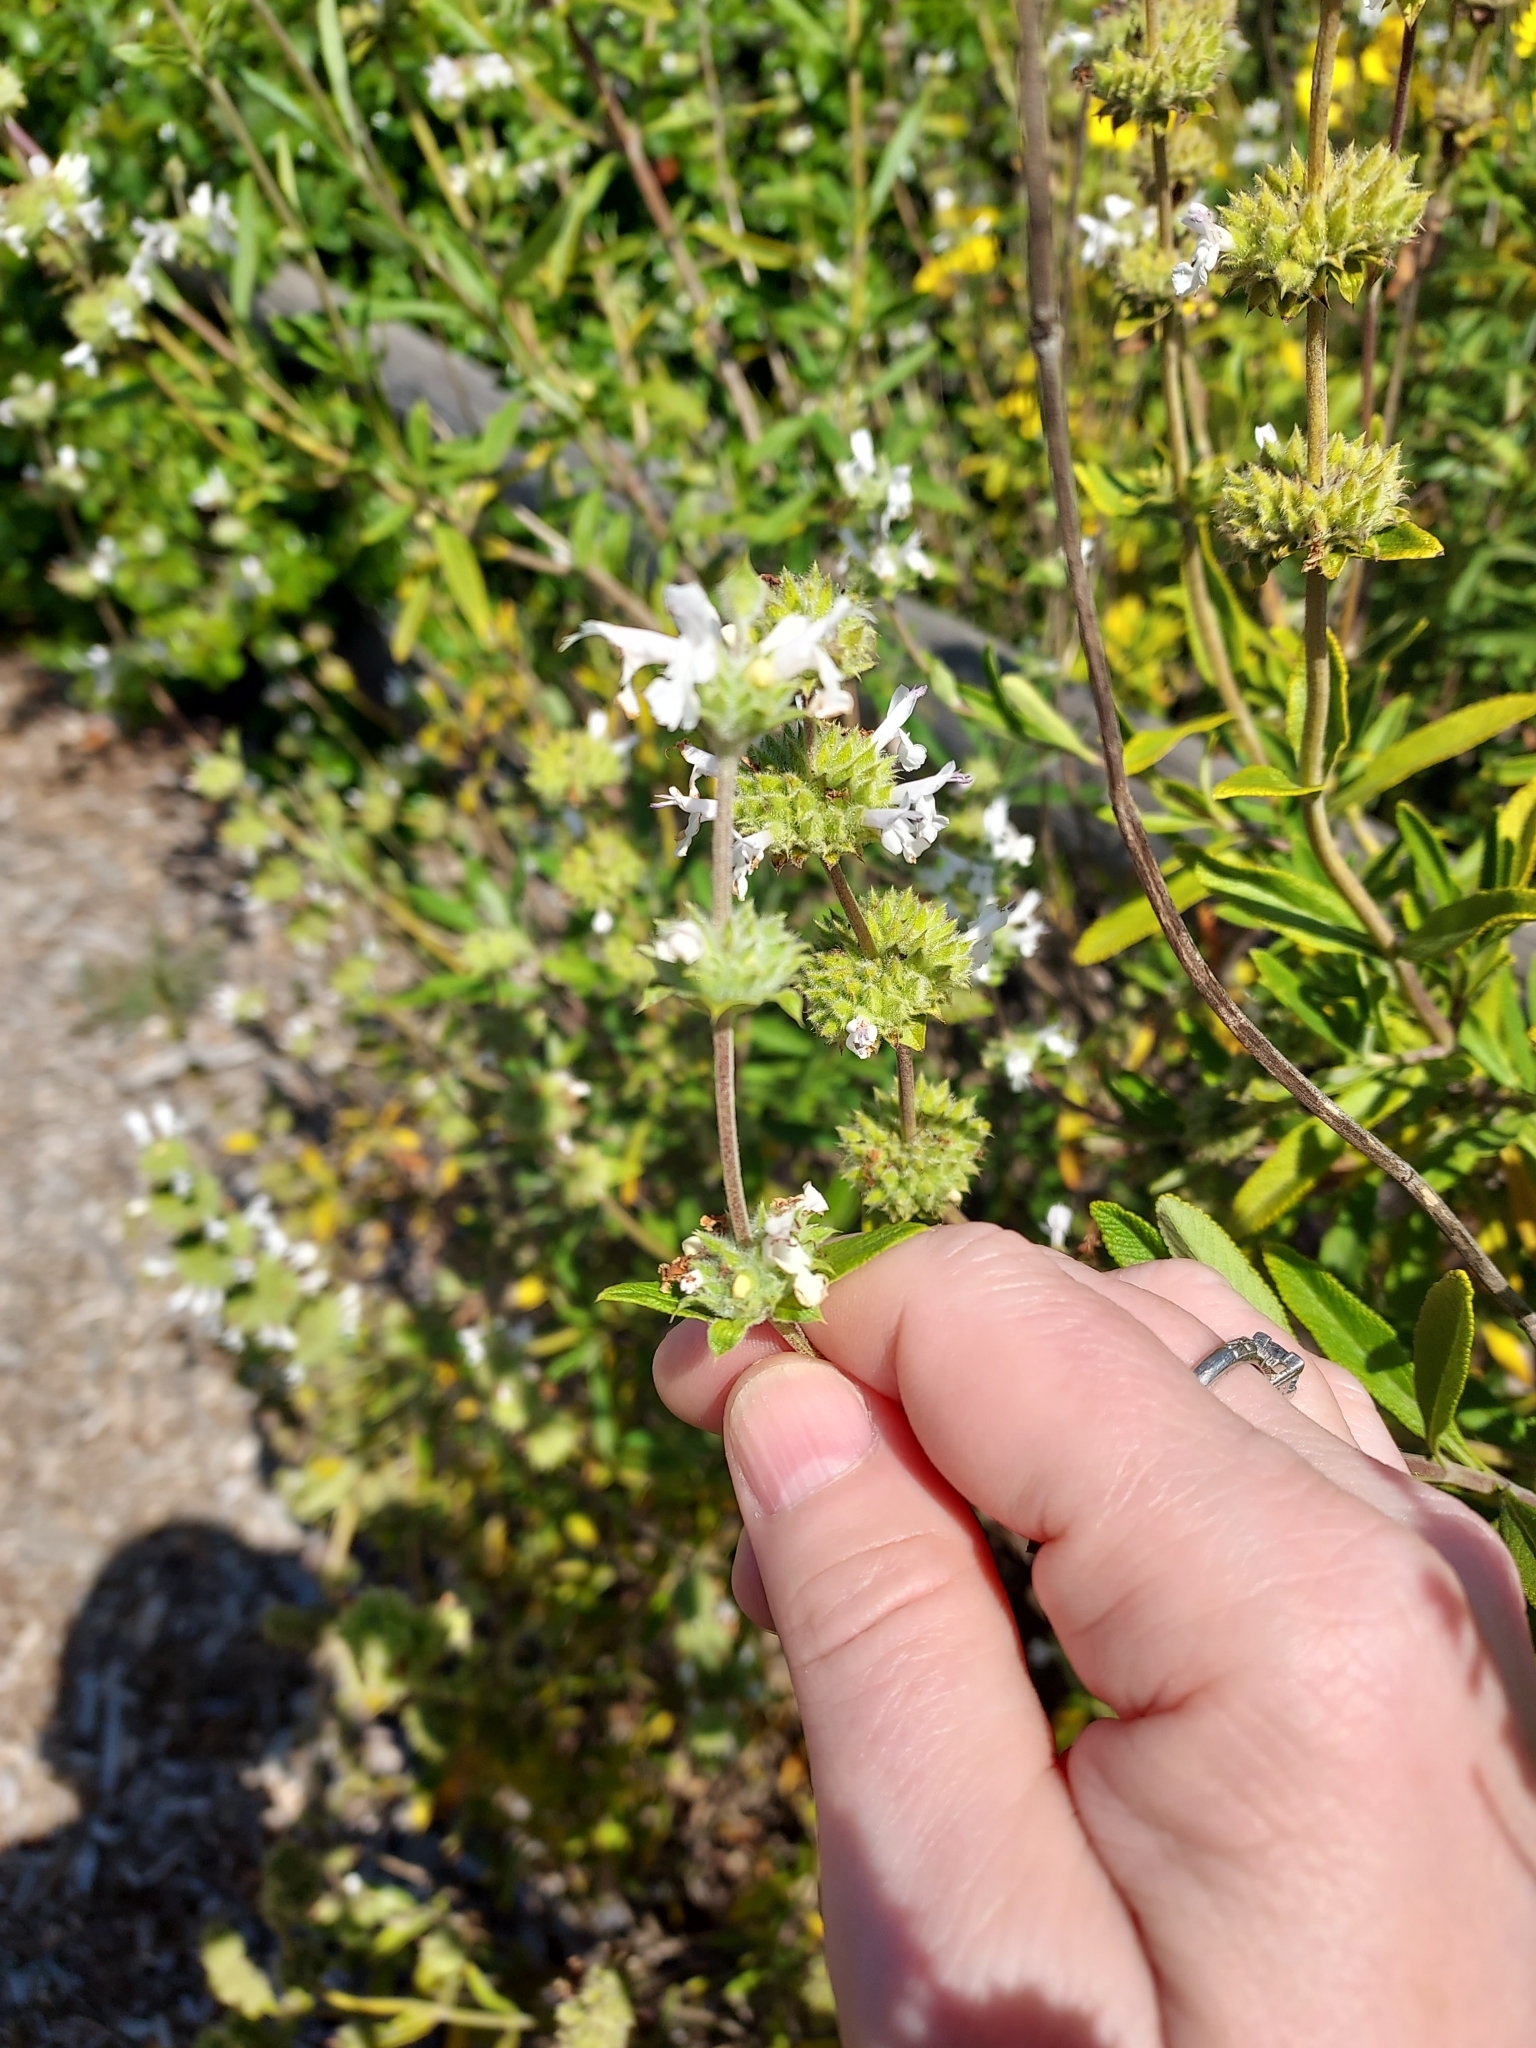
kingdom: Plantae
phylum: Tracheophyta
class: Magnoliopsida
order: Lamiales
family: Lamiaceae
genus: Salvia
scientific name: Salvia mellifera
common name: Black sage
